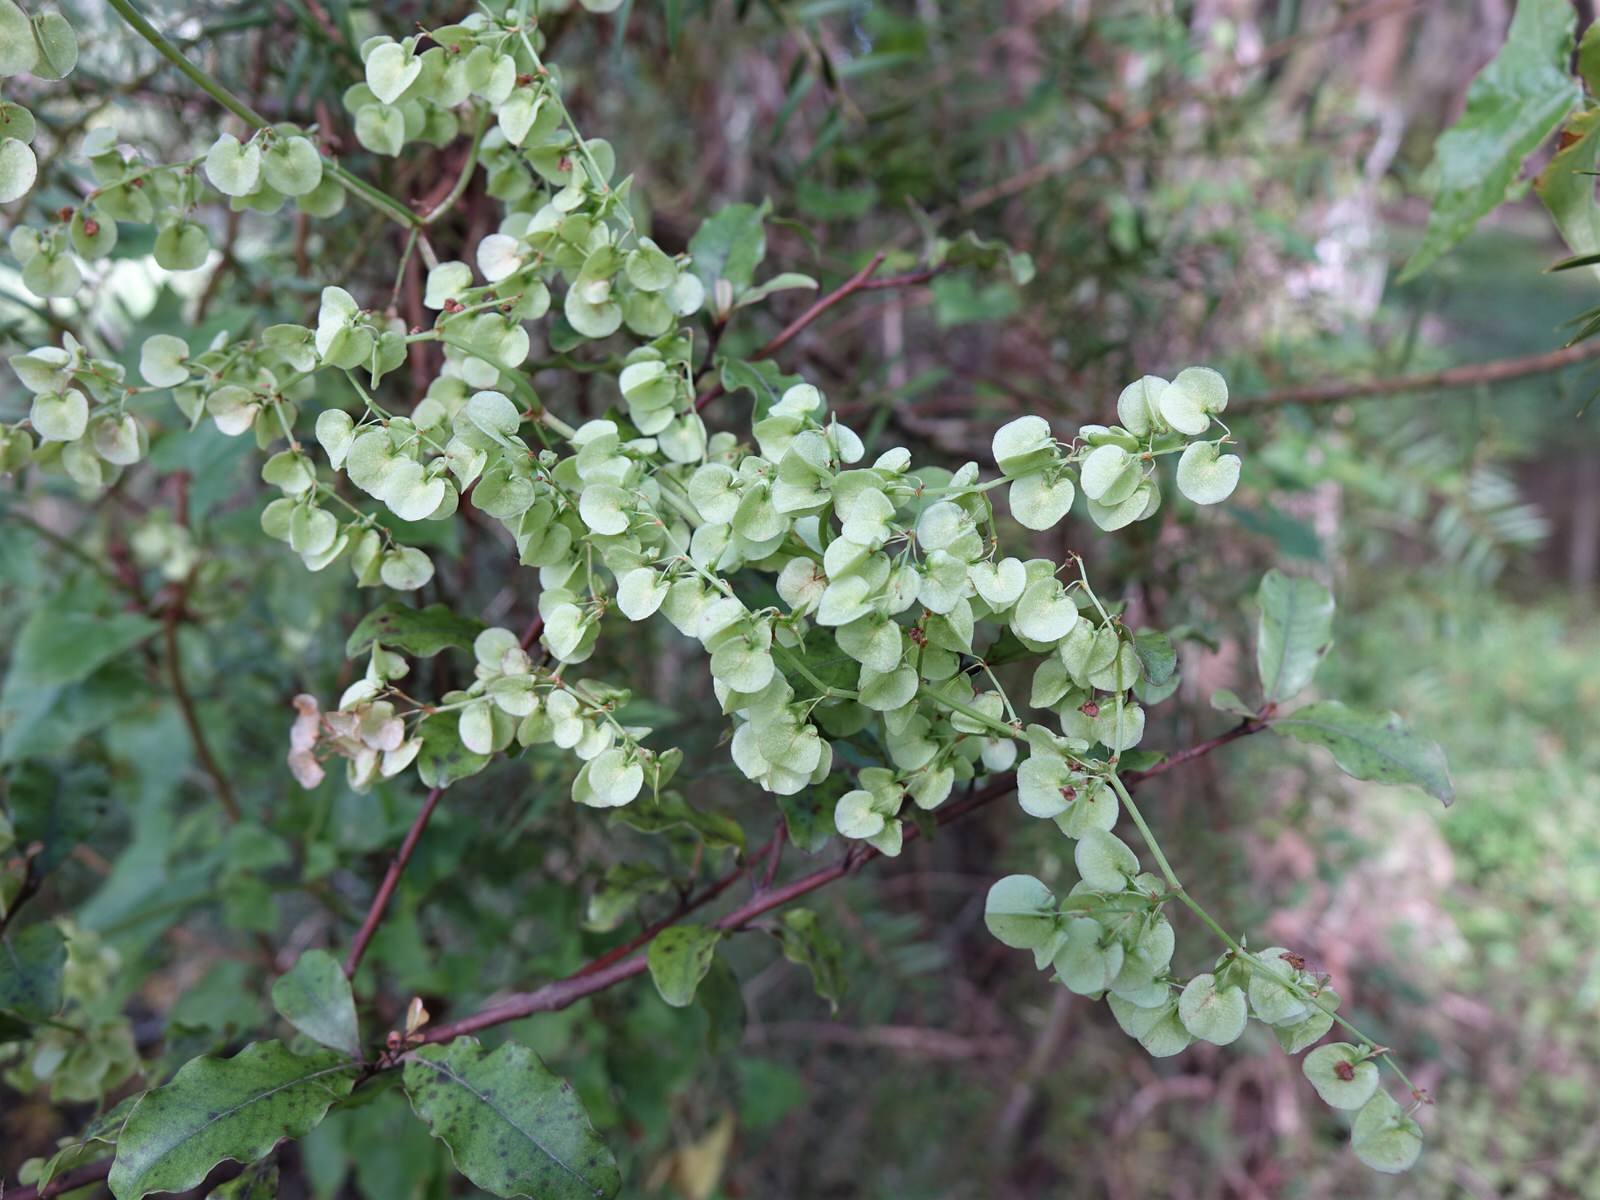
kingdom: Plantae
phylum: Tracheophyta
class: Magnoliopsida
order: Caryophyllales
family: Polygonaceae
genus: Rumex
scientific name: Rumex sagittatus
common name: Climbing dock
